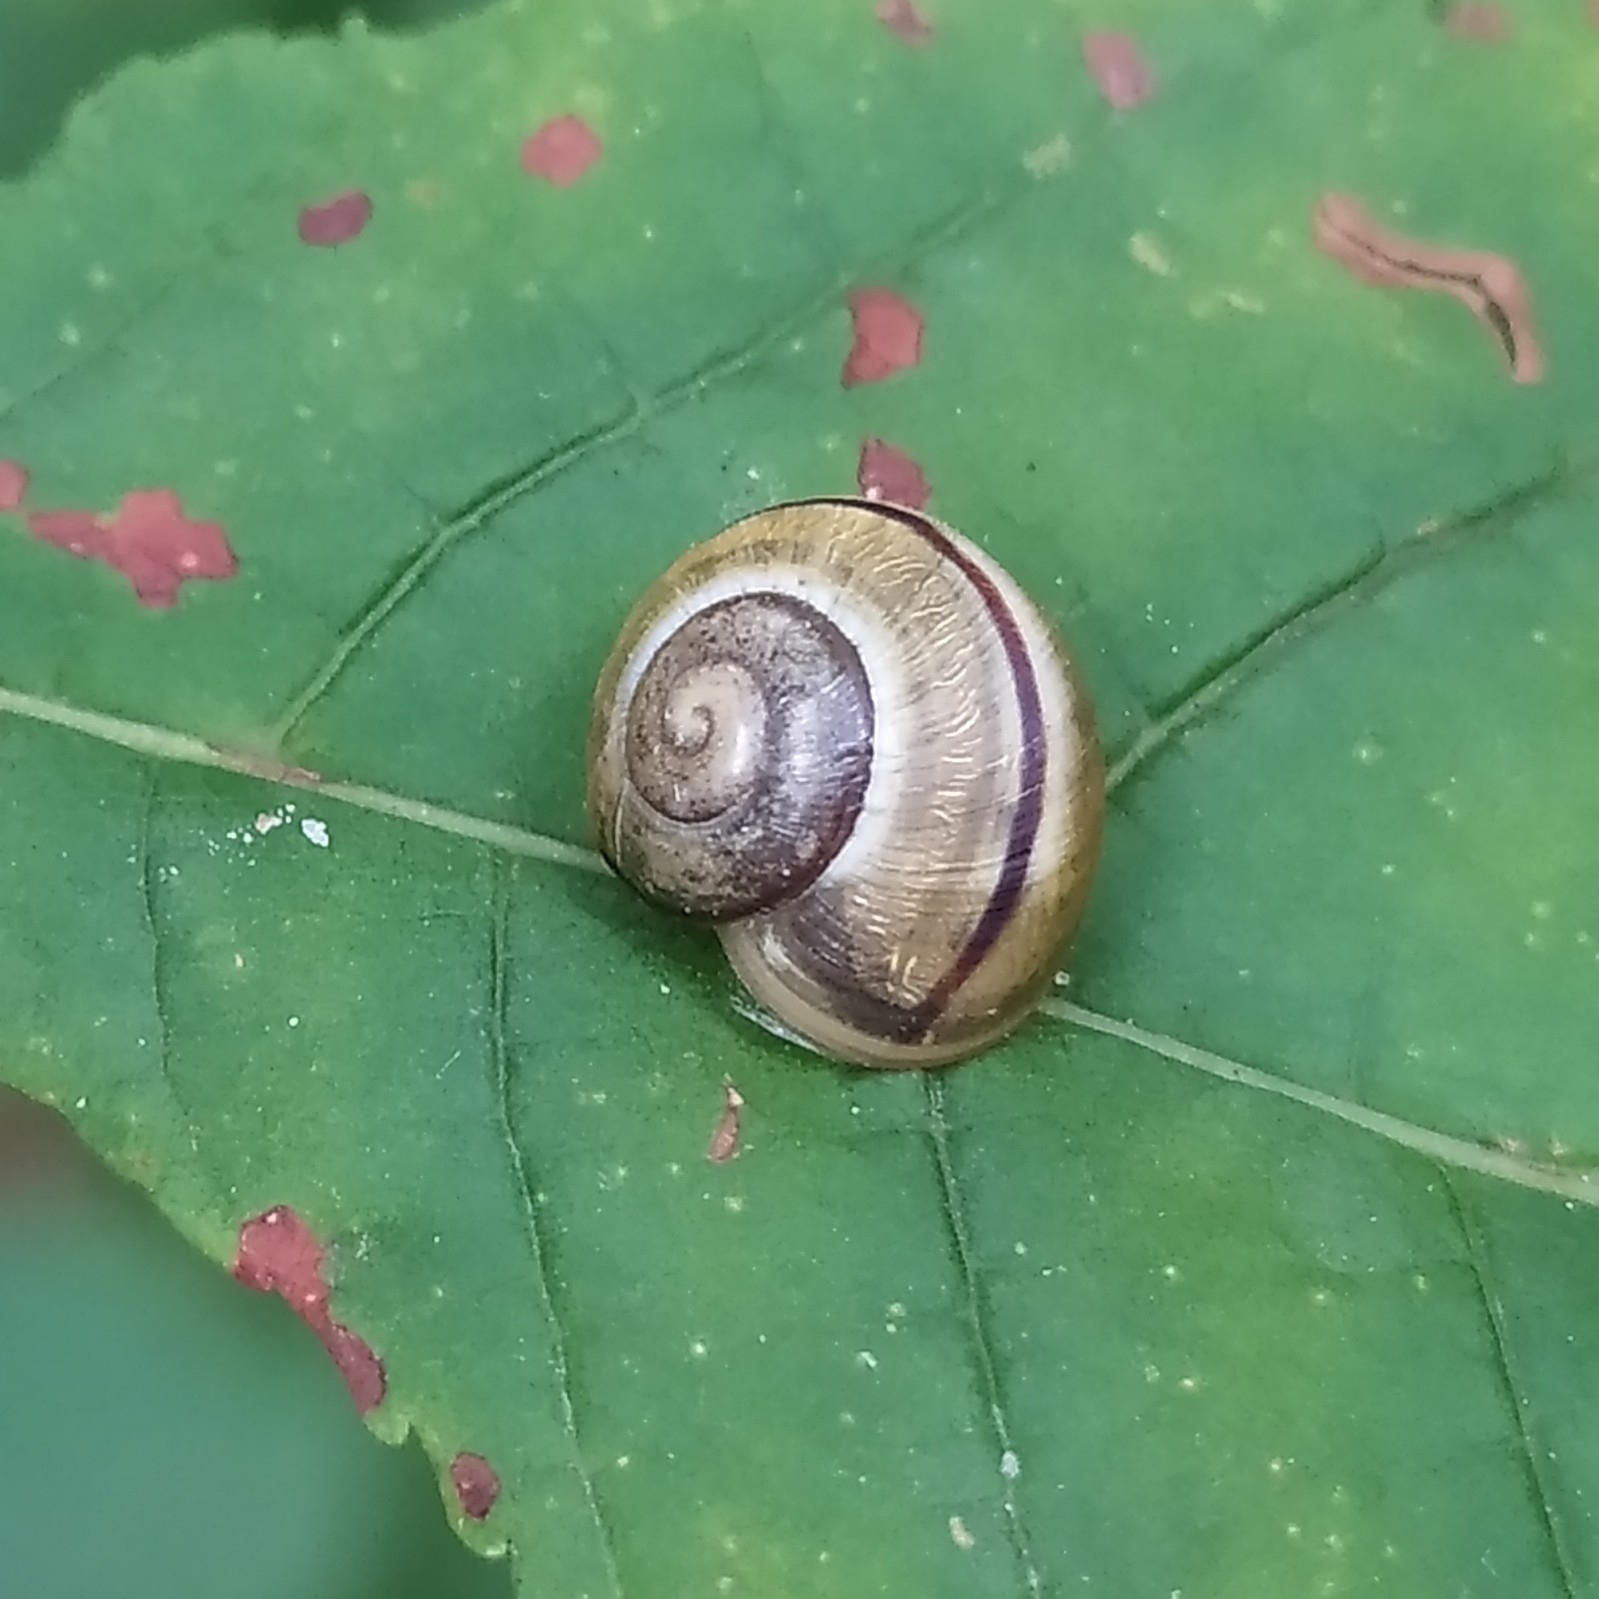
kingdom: Animalia
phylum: Mollusca
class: Gastropoda
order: Stylommatophora
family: Helicidae
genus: Cepaea
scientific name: Cepaea nemoralis
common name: Grovesnail
